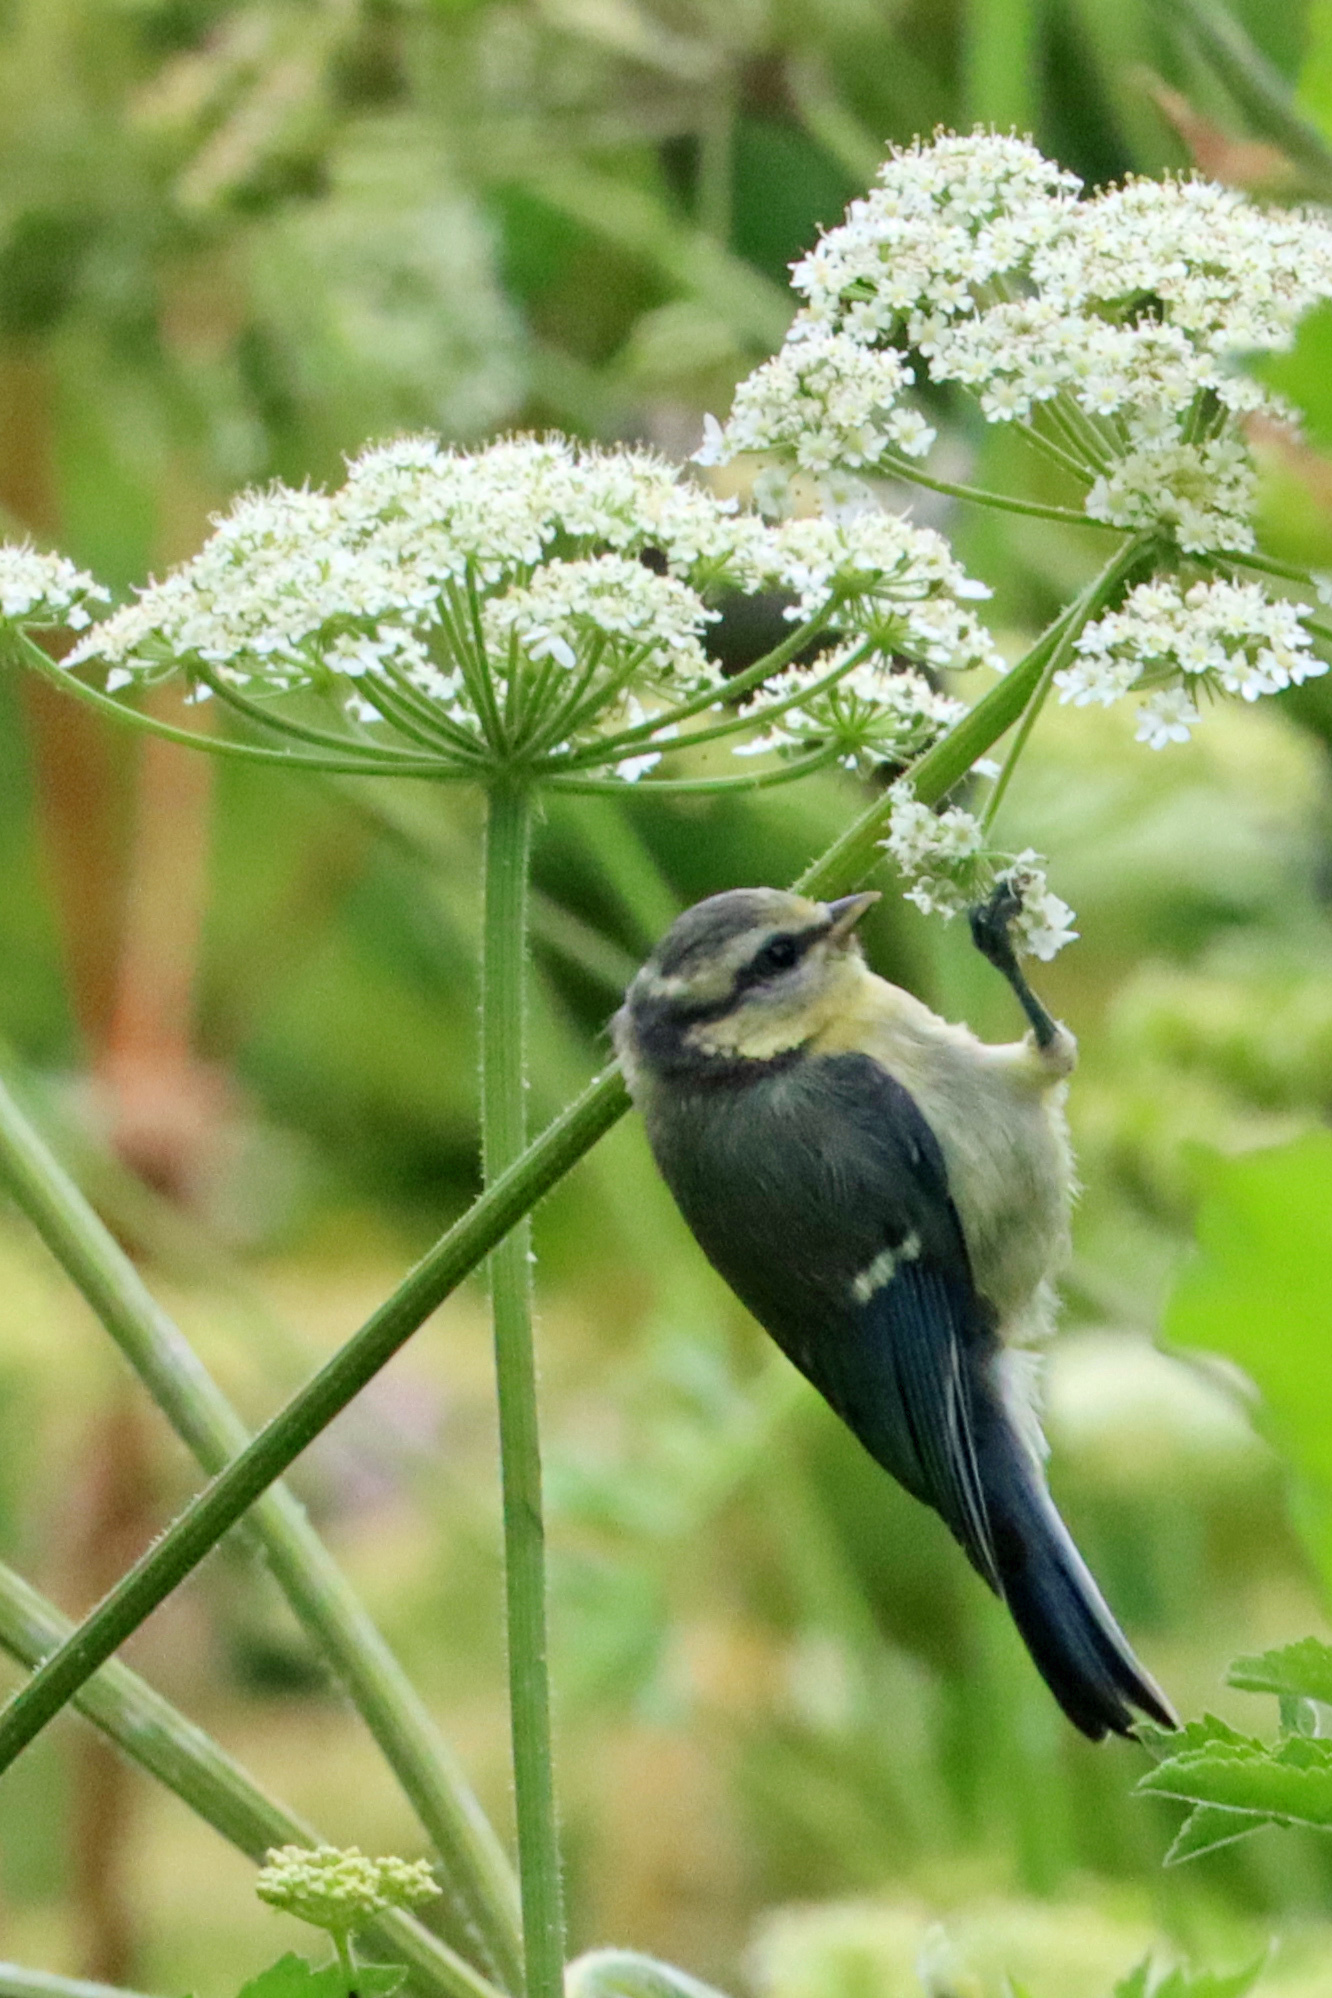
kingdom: Animalia
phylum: Chordata
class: Aves
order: Passeriformes
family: Paridae
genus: Cyanistes
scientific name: Cyanistes caeruleus
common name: Eurasian blue tit
